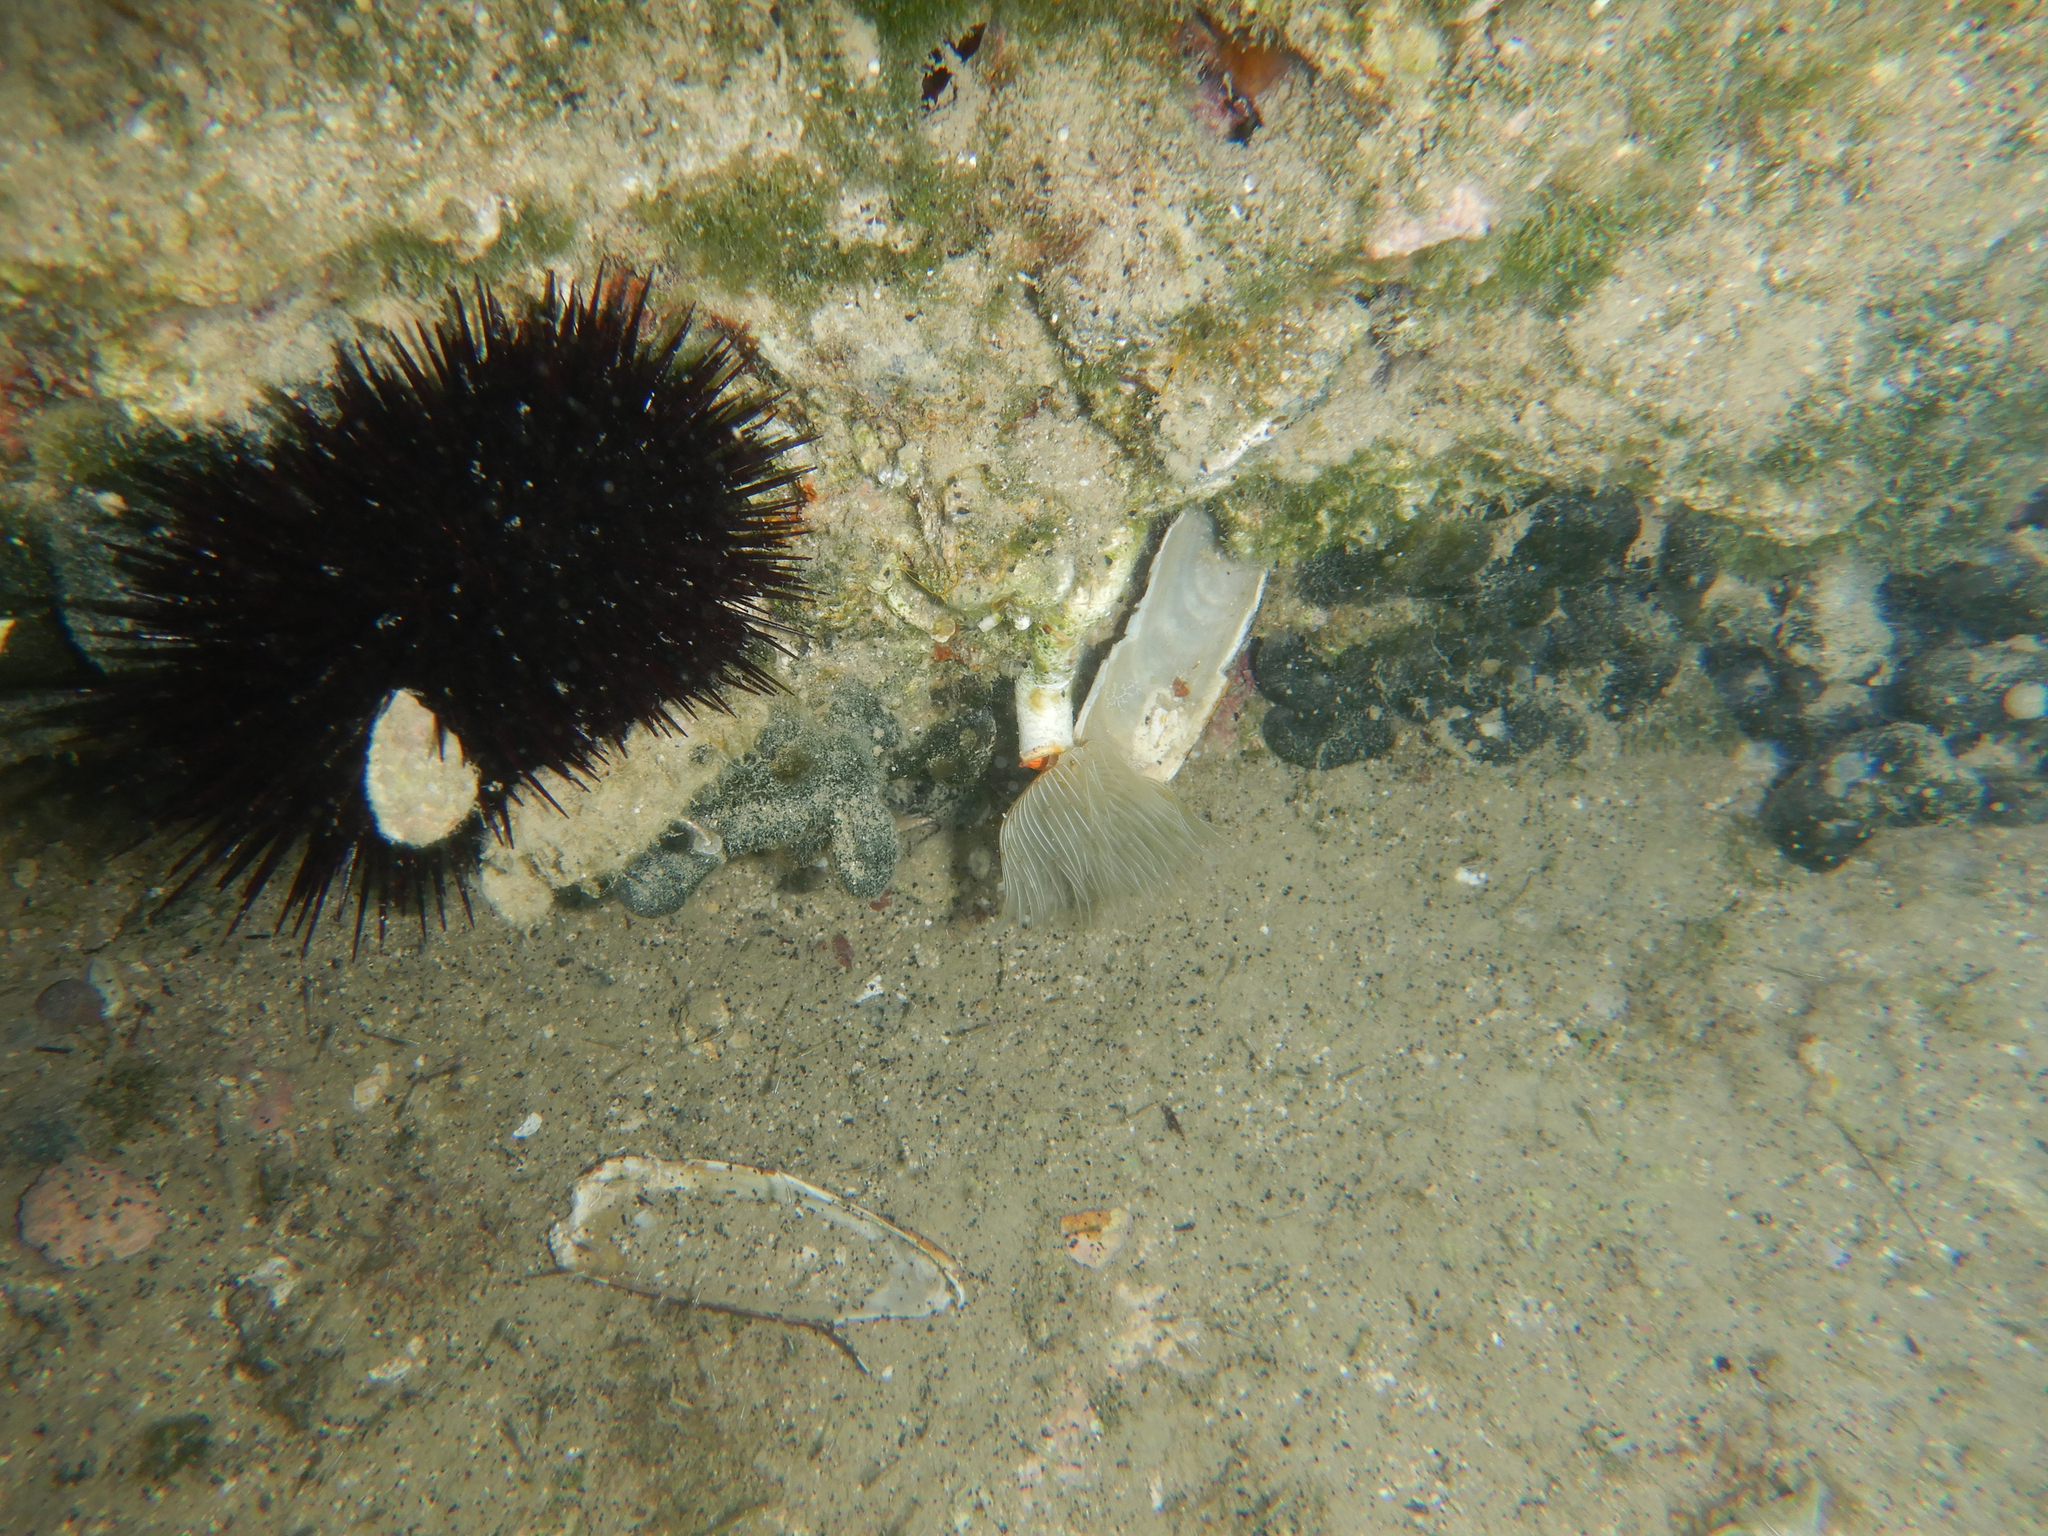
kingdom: Animalia
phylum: Annelida
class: Polychaeta
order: Sabellida
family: Serpulidae
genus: Protula
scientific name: Protula tubularia
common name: Red-spotted horseshoe
